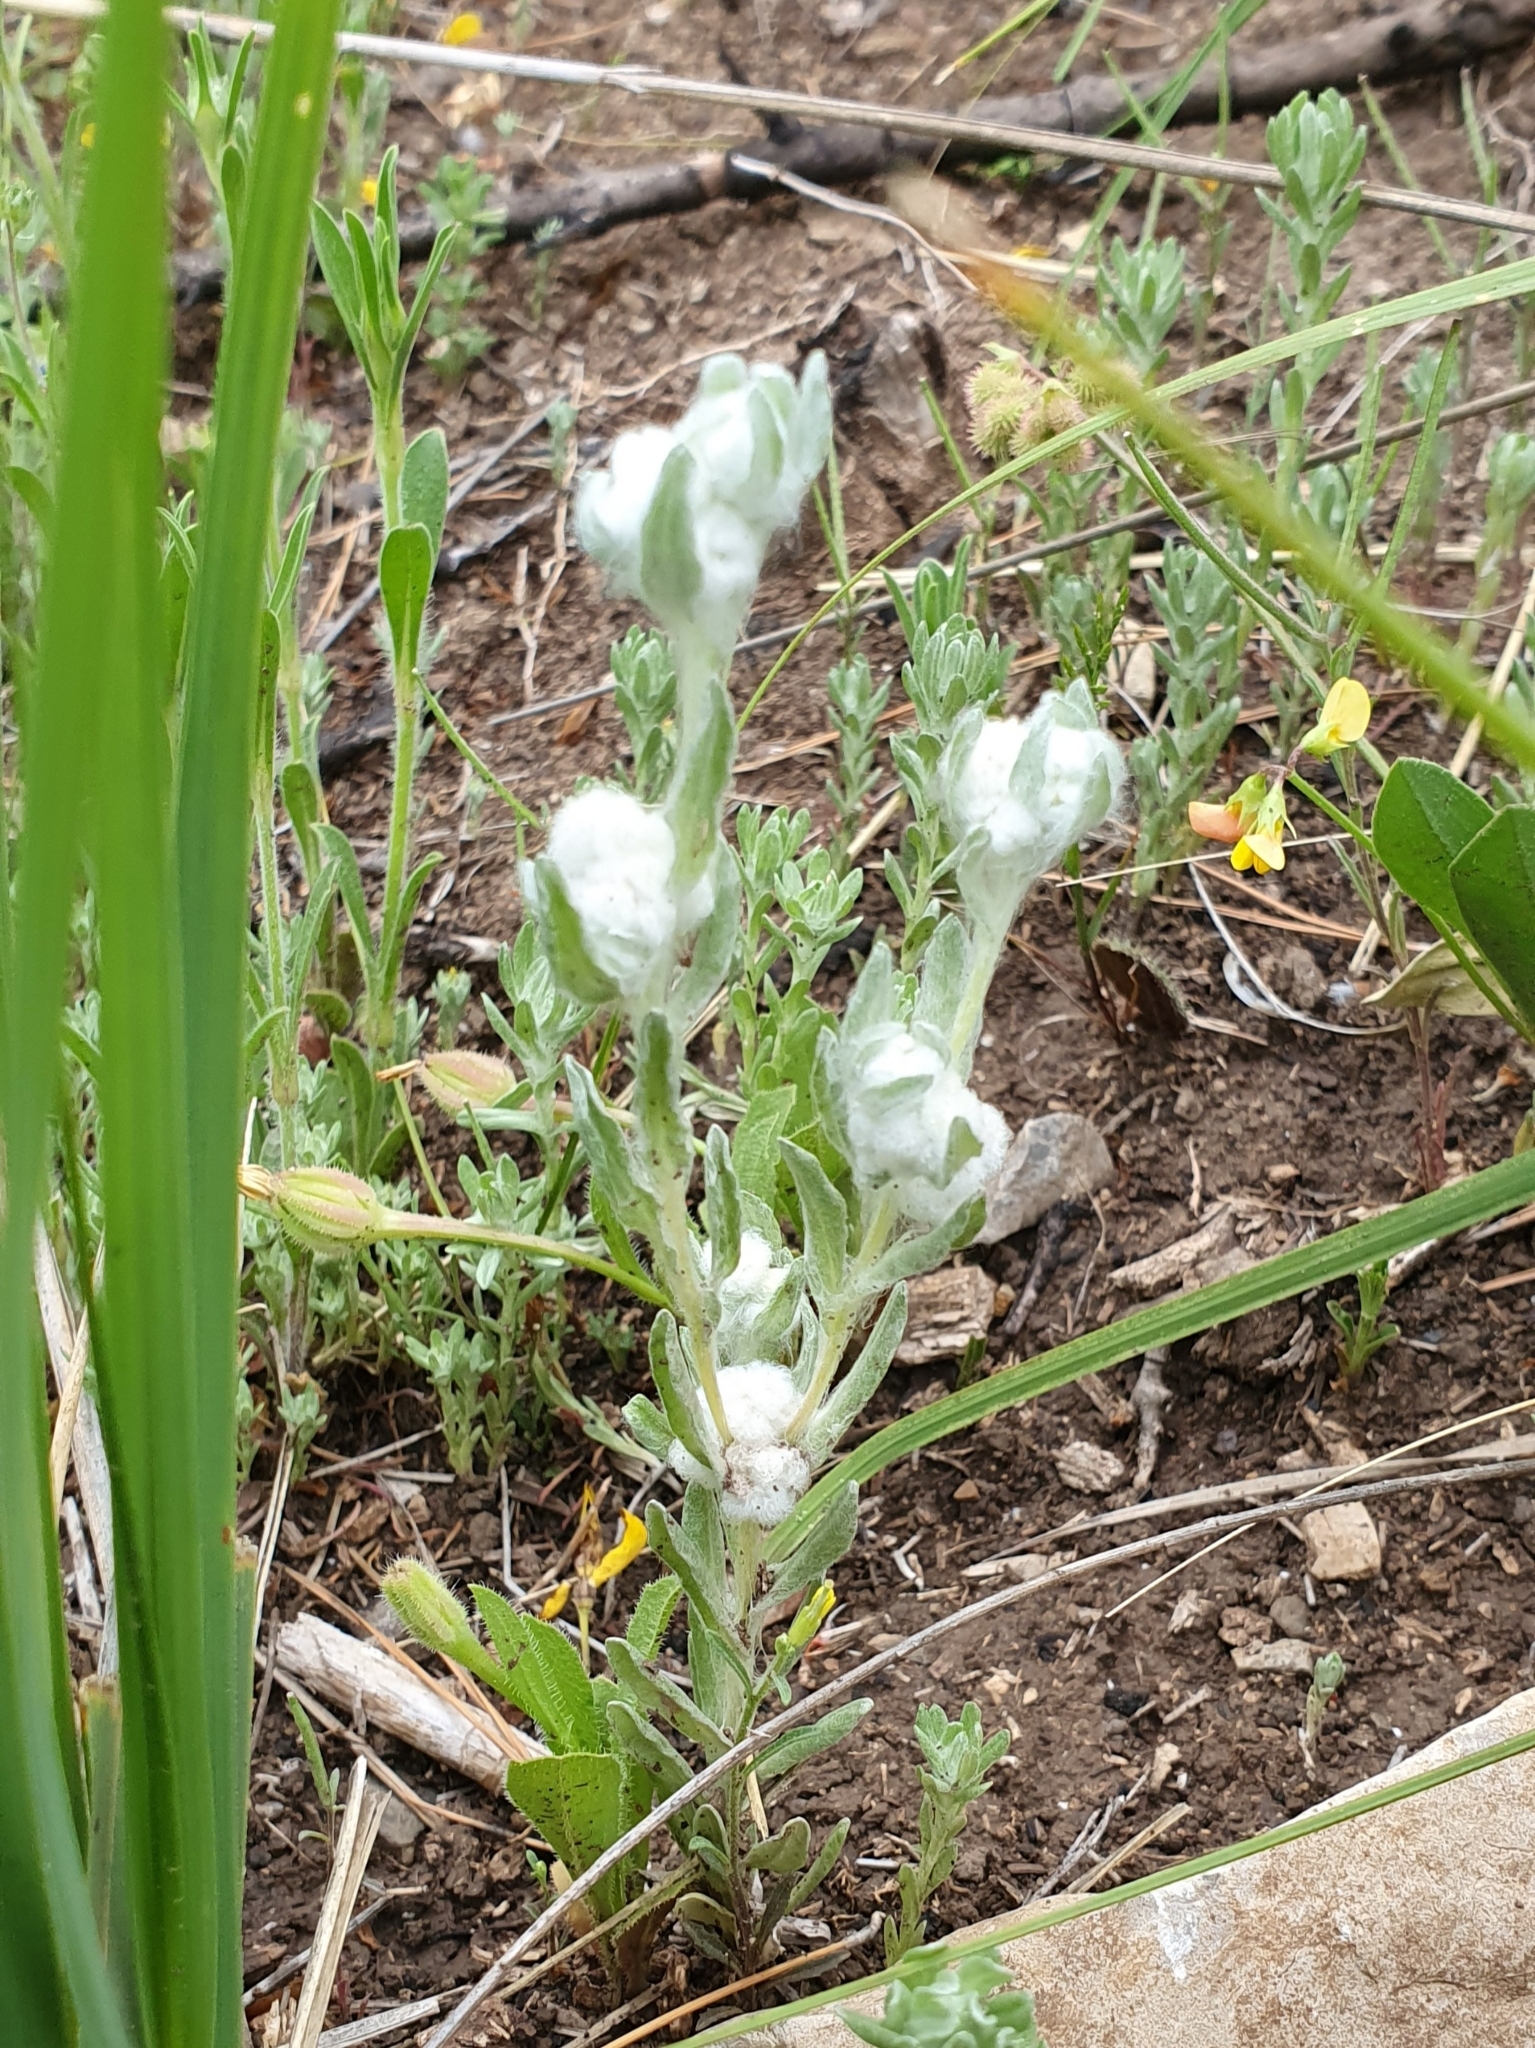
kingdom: Plantae
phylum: Tracheophyta
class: Magnoliopsida
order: Asterales
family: Asteraceae
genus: Bombycilaena
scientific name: Bombycilaena discolor
